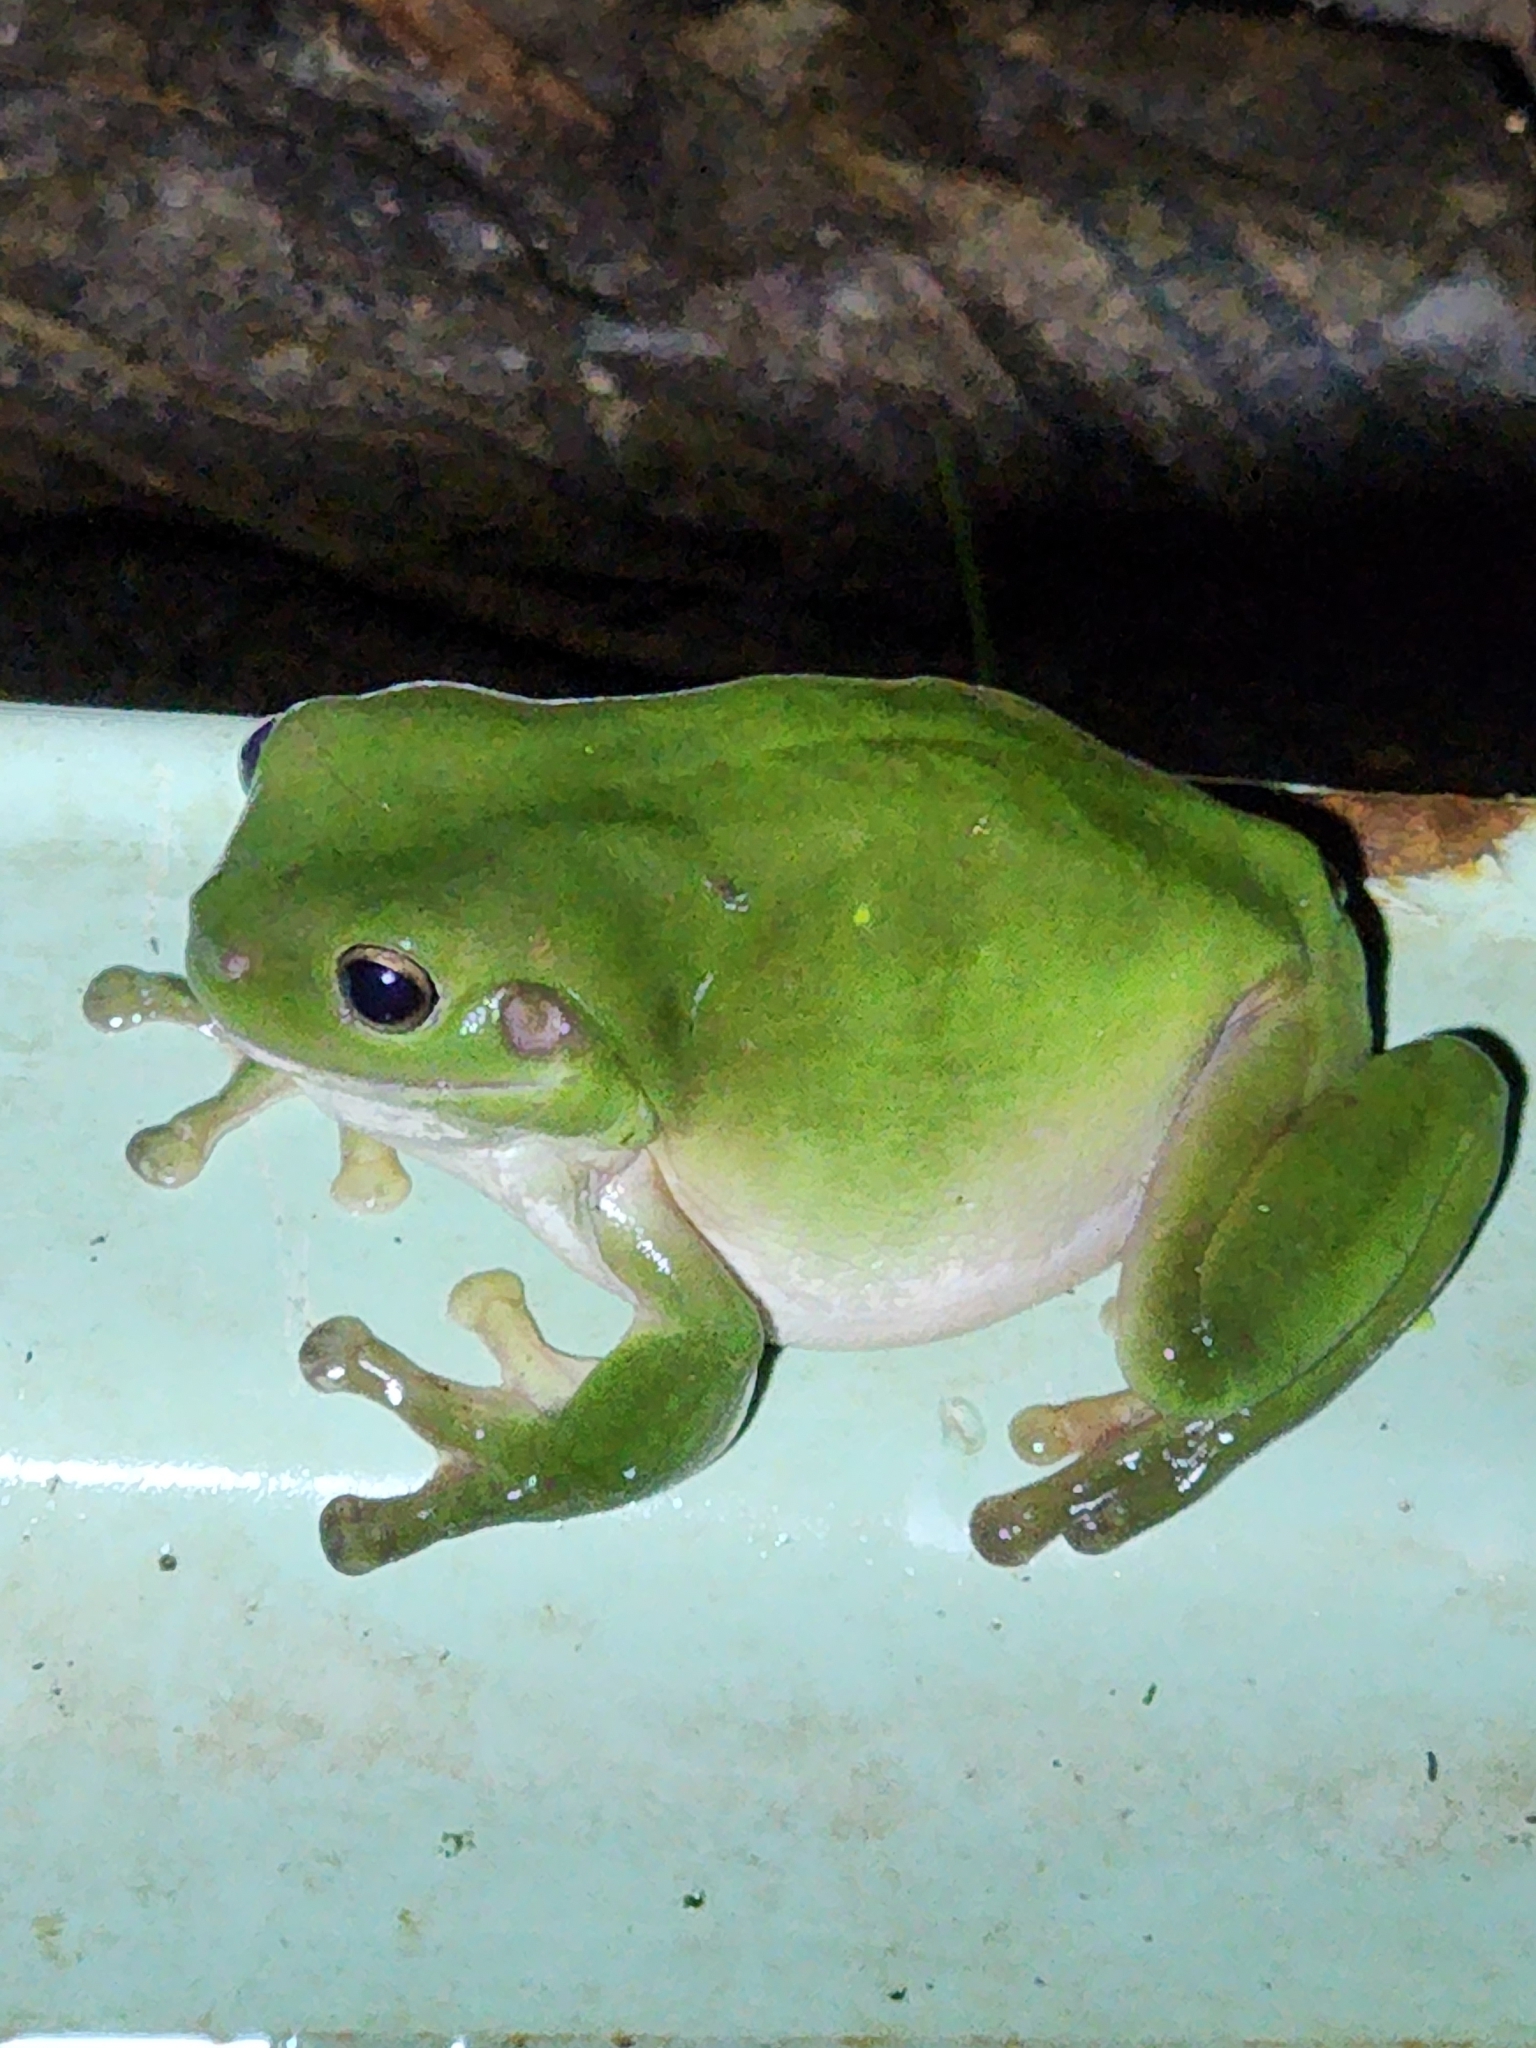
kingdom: Animalia
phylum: Chordata
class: Amphibia
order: Anura
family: Pelodryadidae
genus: Ranoidea
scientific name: Ranoidea caerulea
